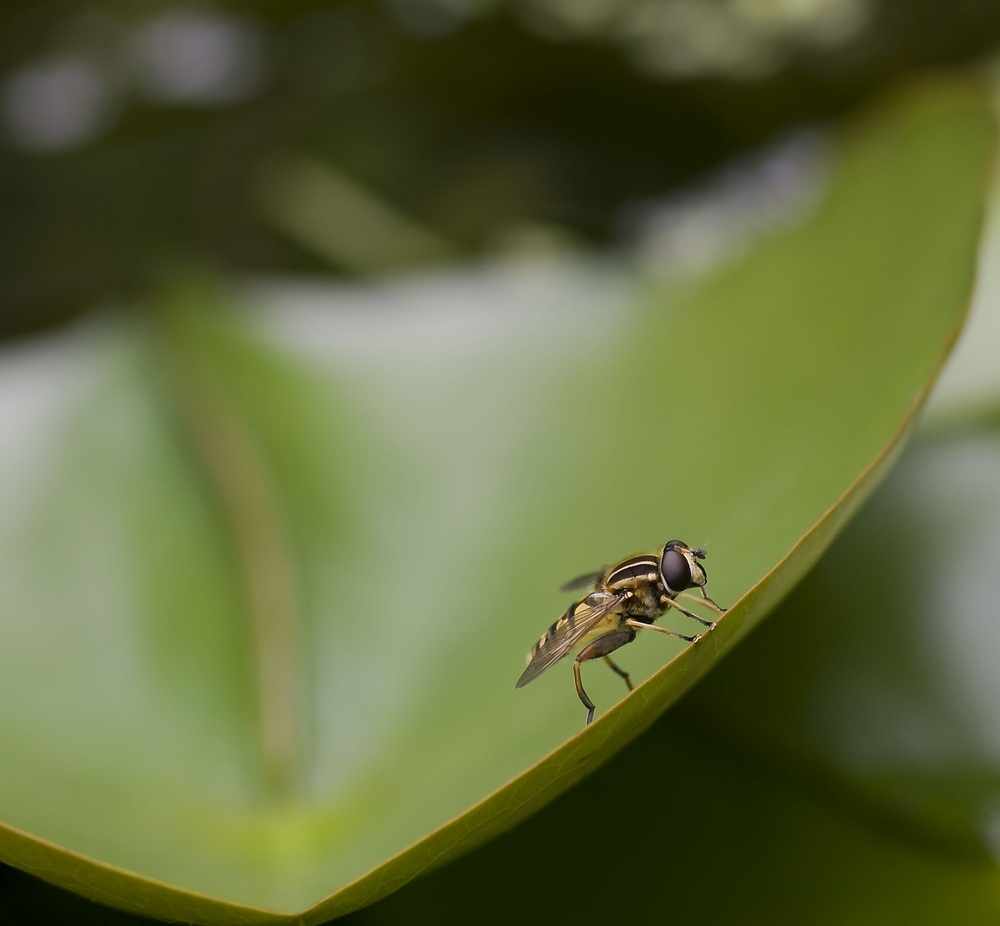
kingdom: Animalia
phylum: Arthropoda
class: Insecta
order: Diptera
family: Syrphidae
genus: Helophilus
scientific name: Helophilus pendulus
